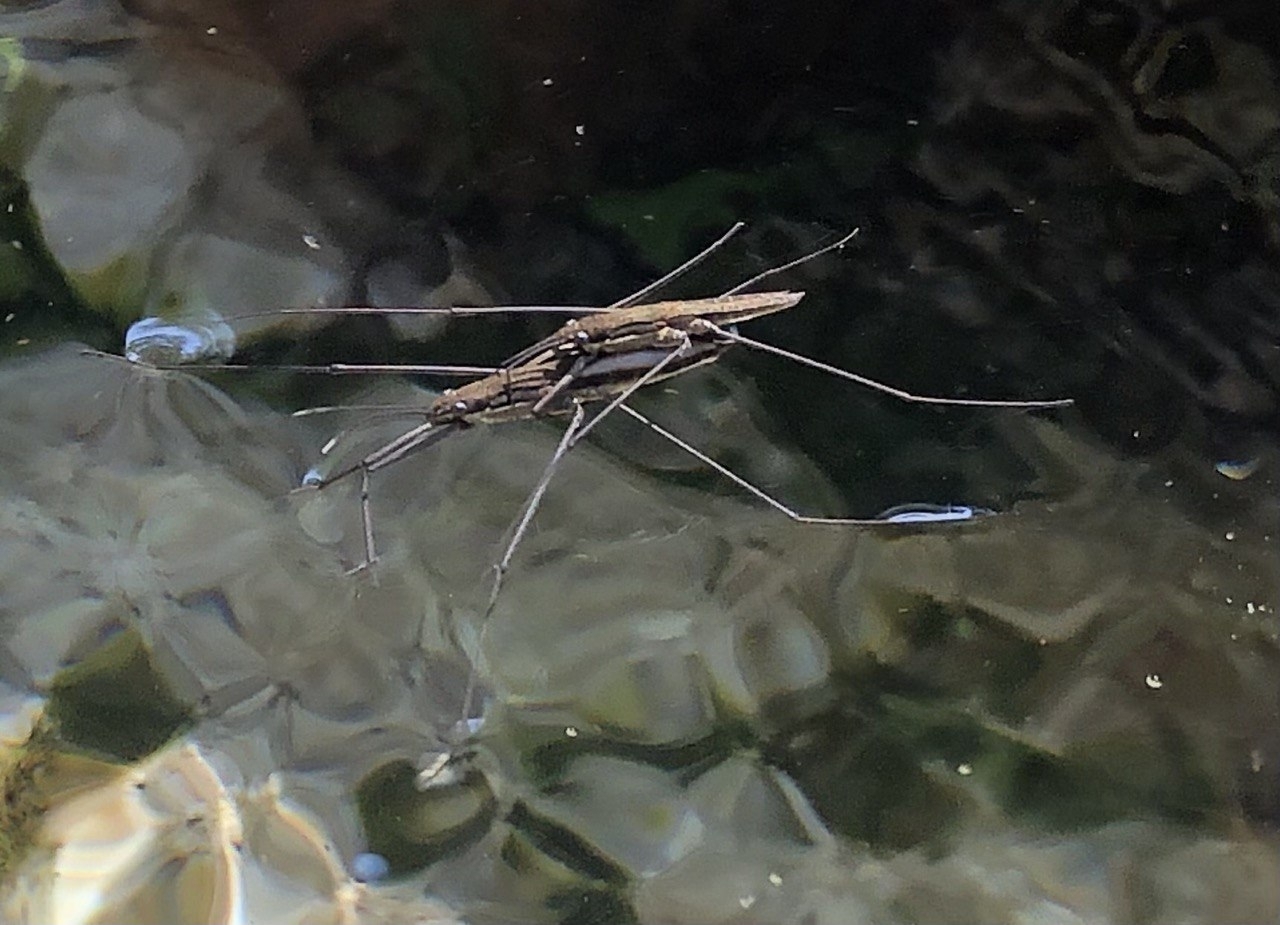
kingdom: Animalia
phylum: Arthropoda
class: Insecta
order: Hemiptera
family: Gerridae
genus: Aquarius
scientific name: Aquarius najas
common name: River skater
